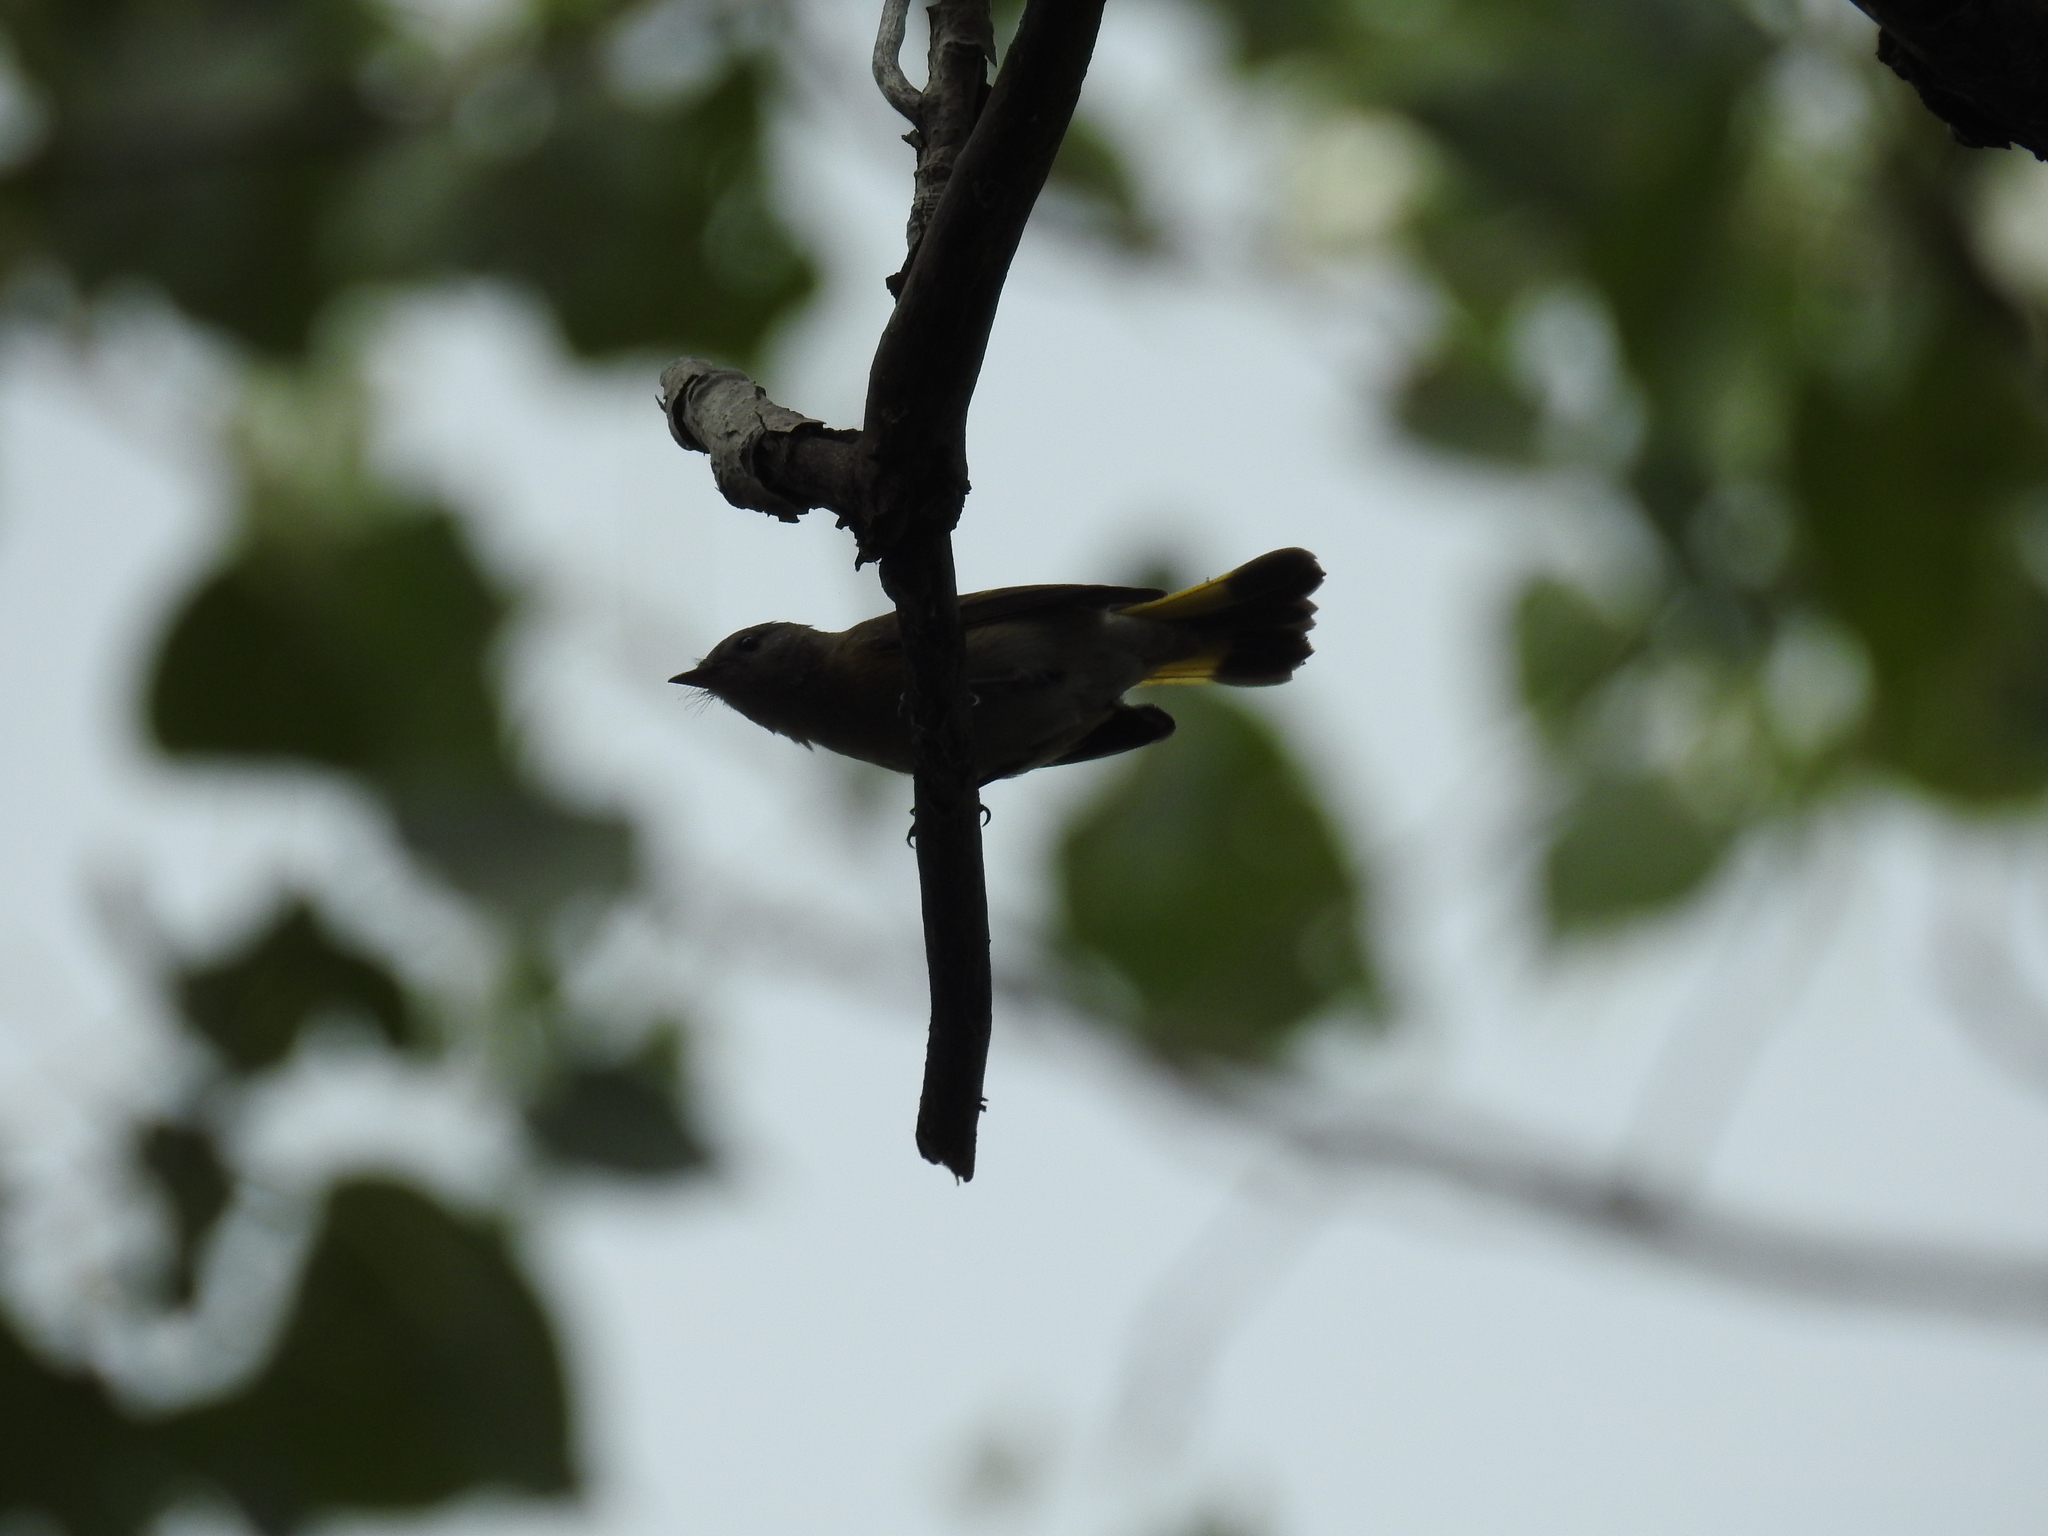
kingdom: Animalia
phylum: Chordata
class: Aves
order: Passeriformes
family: Parulidae
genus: Setophaga
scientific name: Setophaga ruticilla
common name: American redstart
